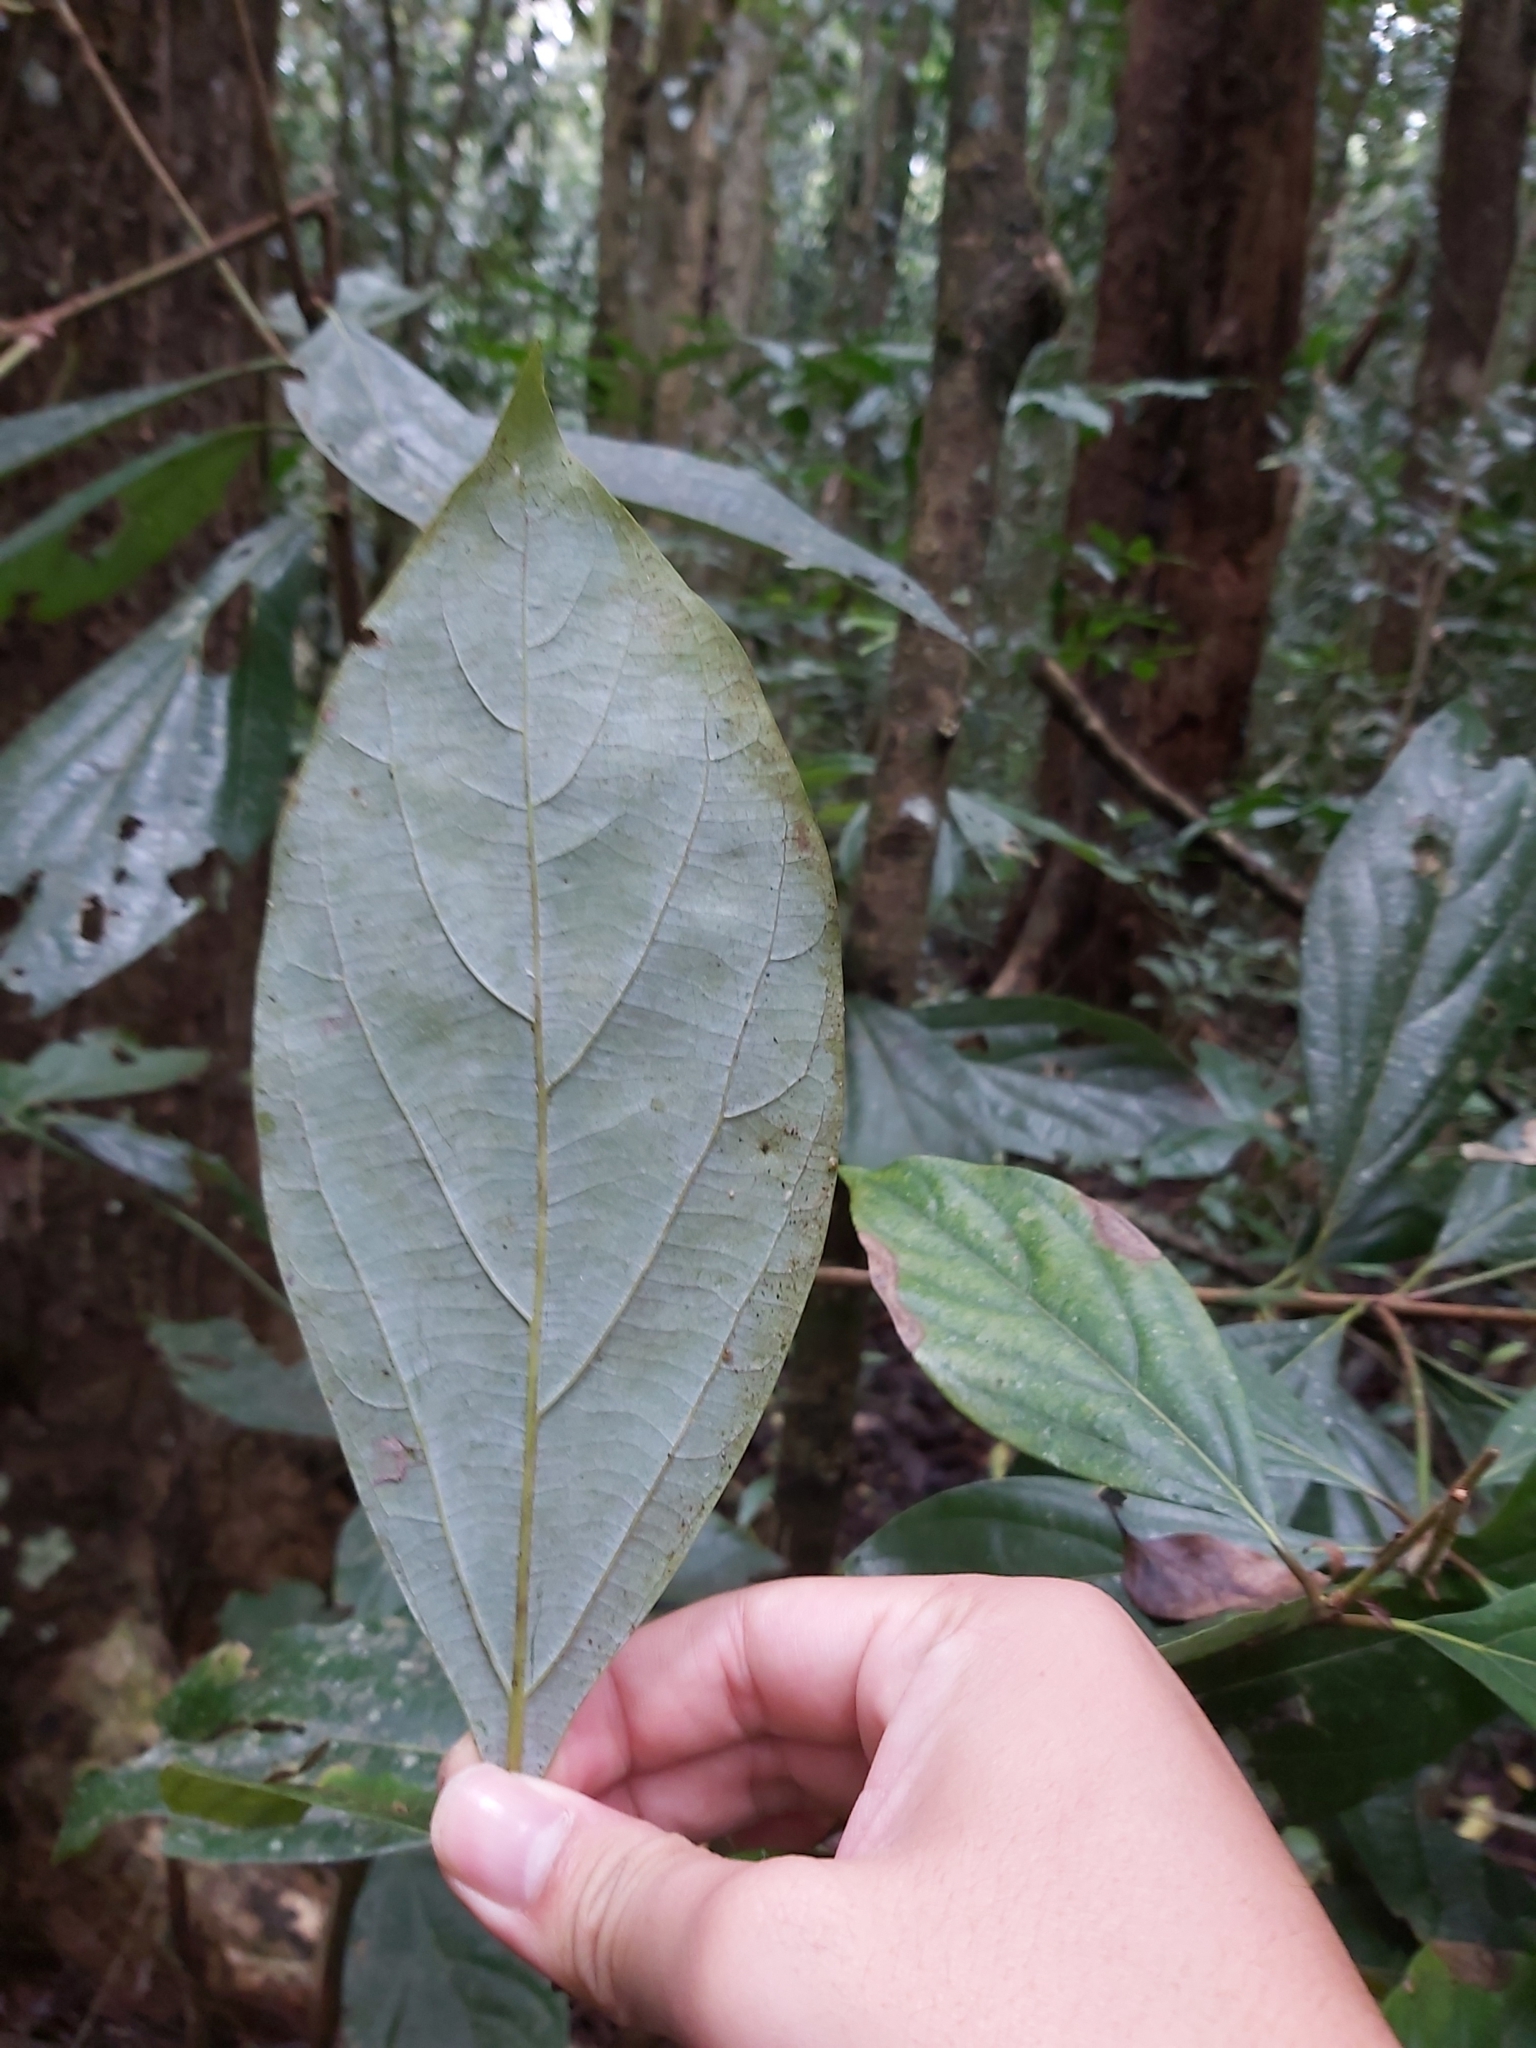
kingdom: Plantae
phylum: Tracheophyta
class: Magnoliopsida
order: Laurales
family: Lauraceae
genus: Neolitsea
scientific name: Neolitsea dealbata
